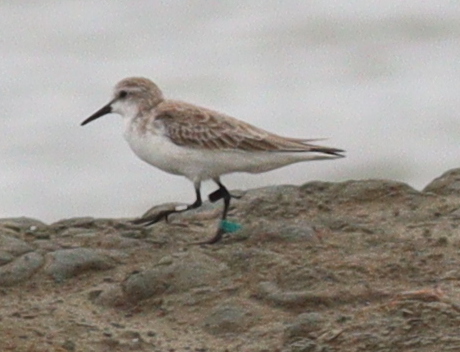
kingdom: Animalia
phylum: Chordata
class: Aves
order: Charadriiformes
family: Scolopacidae
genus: Calidris
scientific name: Calidris ruficollis
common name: Red-necked stint
